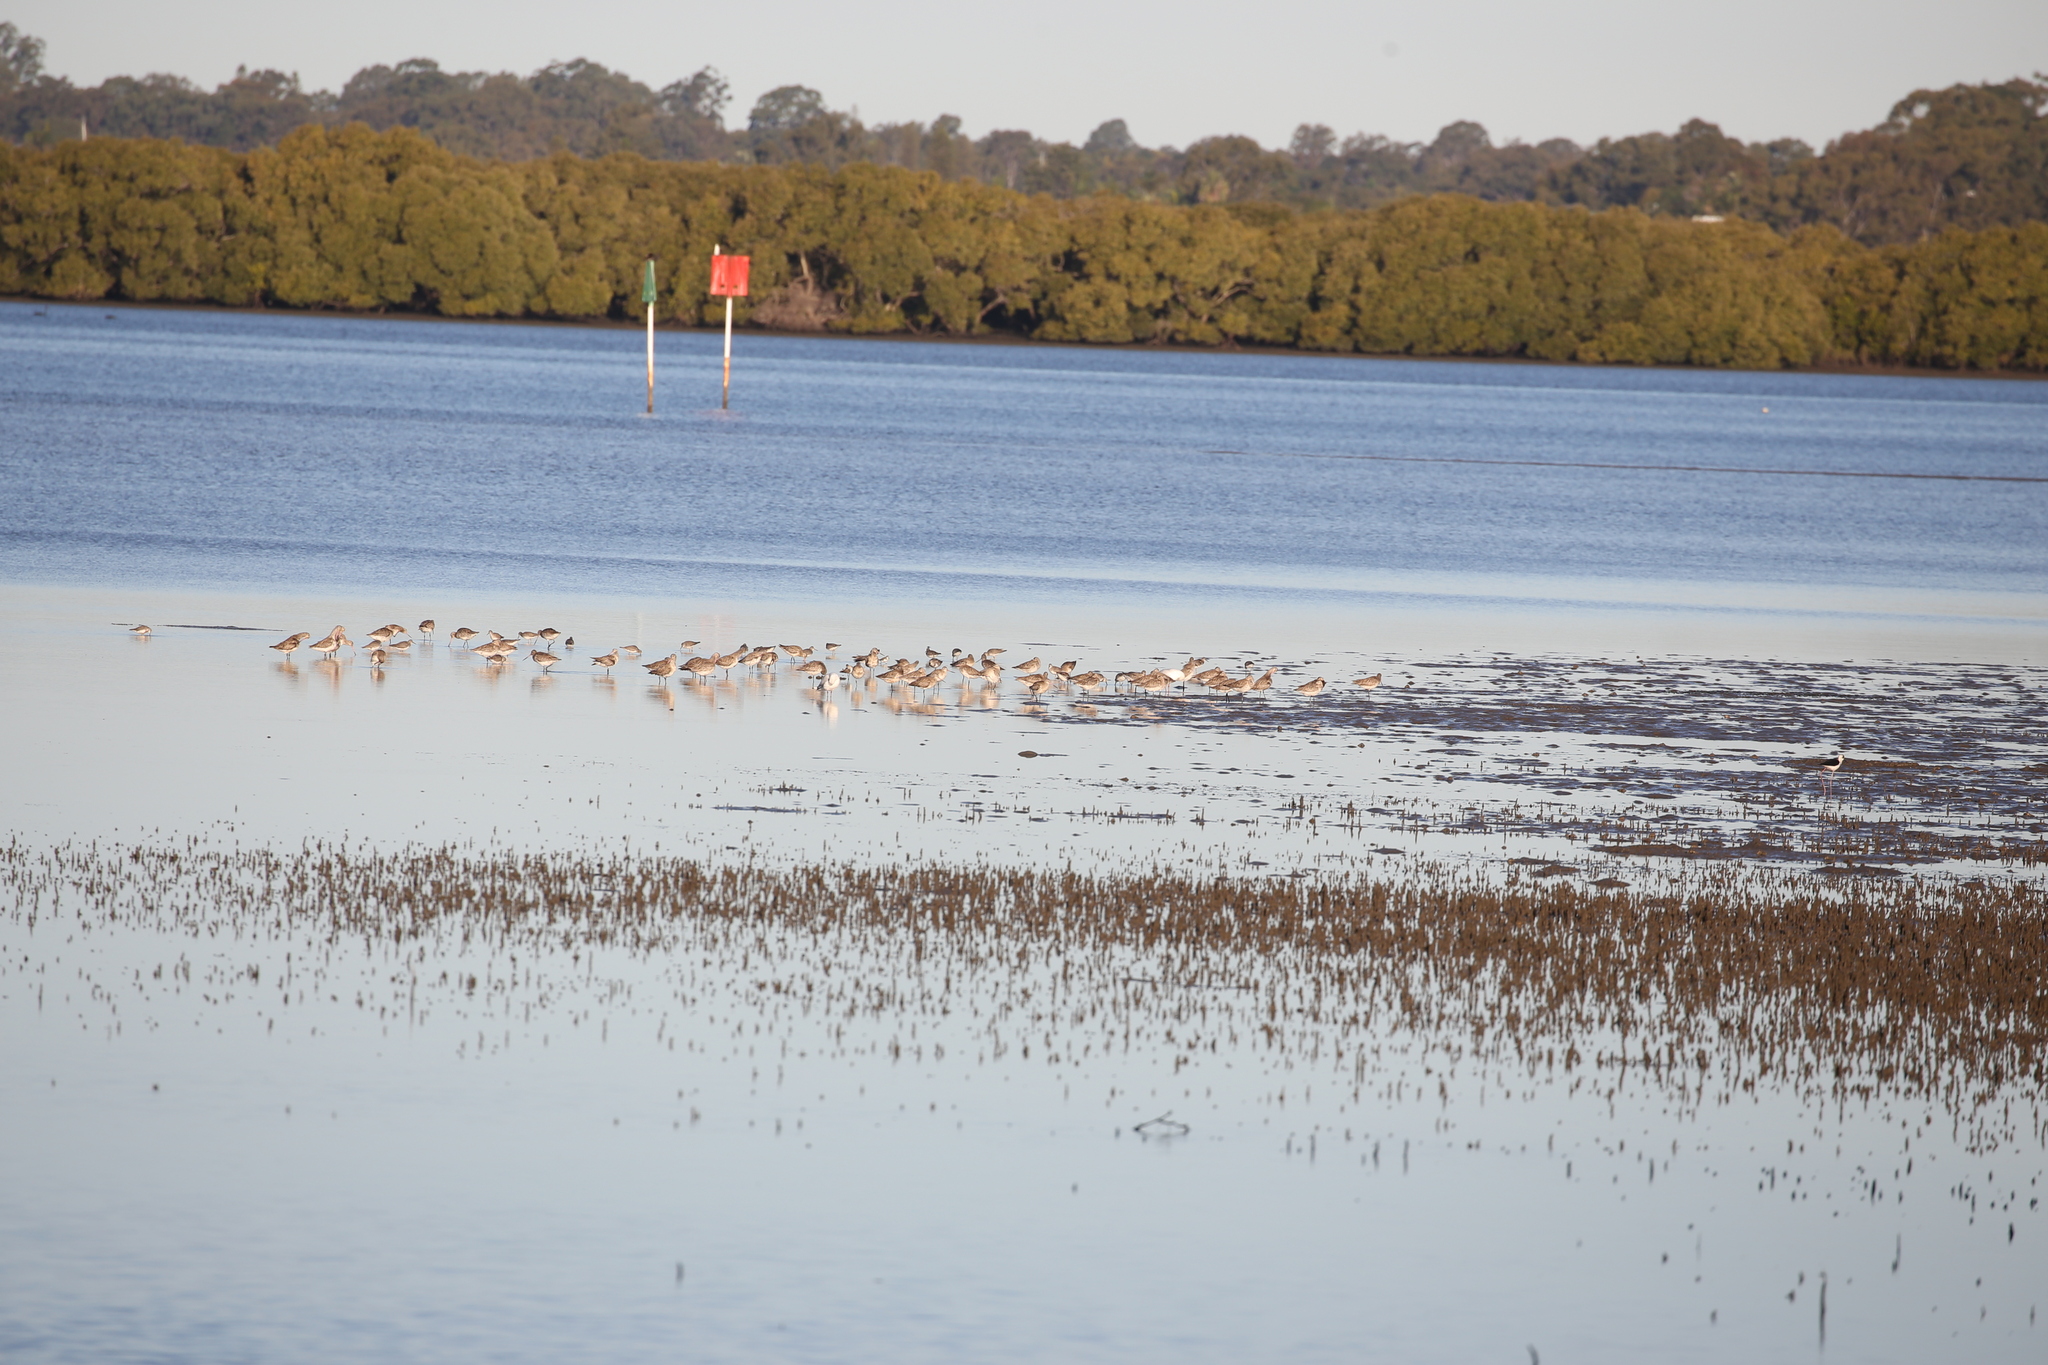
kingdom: Animalia
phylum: Chordata
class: Aves
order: Charadriiformes
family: Scolopacidae
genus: Limosa
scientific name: Limosa lapponica
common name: Bar-tailed godwit
